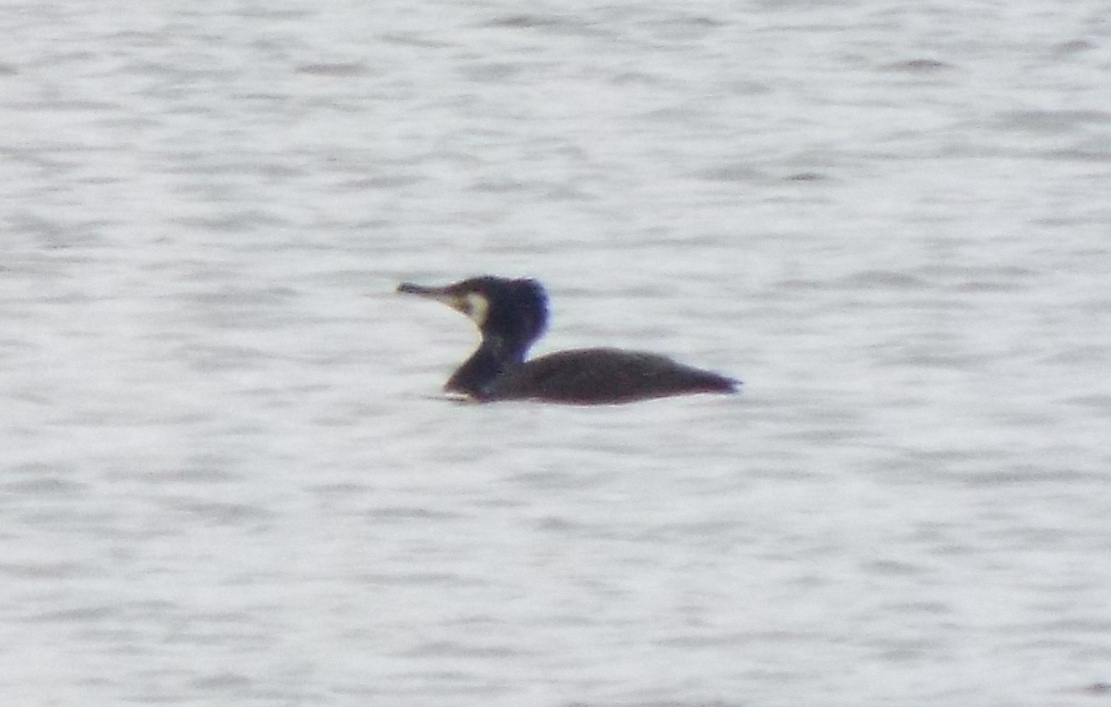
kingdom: Animalia
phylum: Chordata
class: Aves
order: Suliformes
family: Phalacrocoracidae
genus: Phalacrocorax
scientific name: Phalacrocorax carbo
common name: Great cormorant
